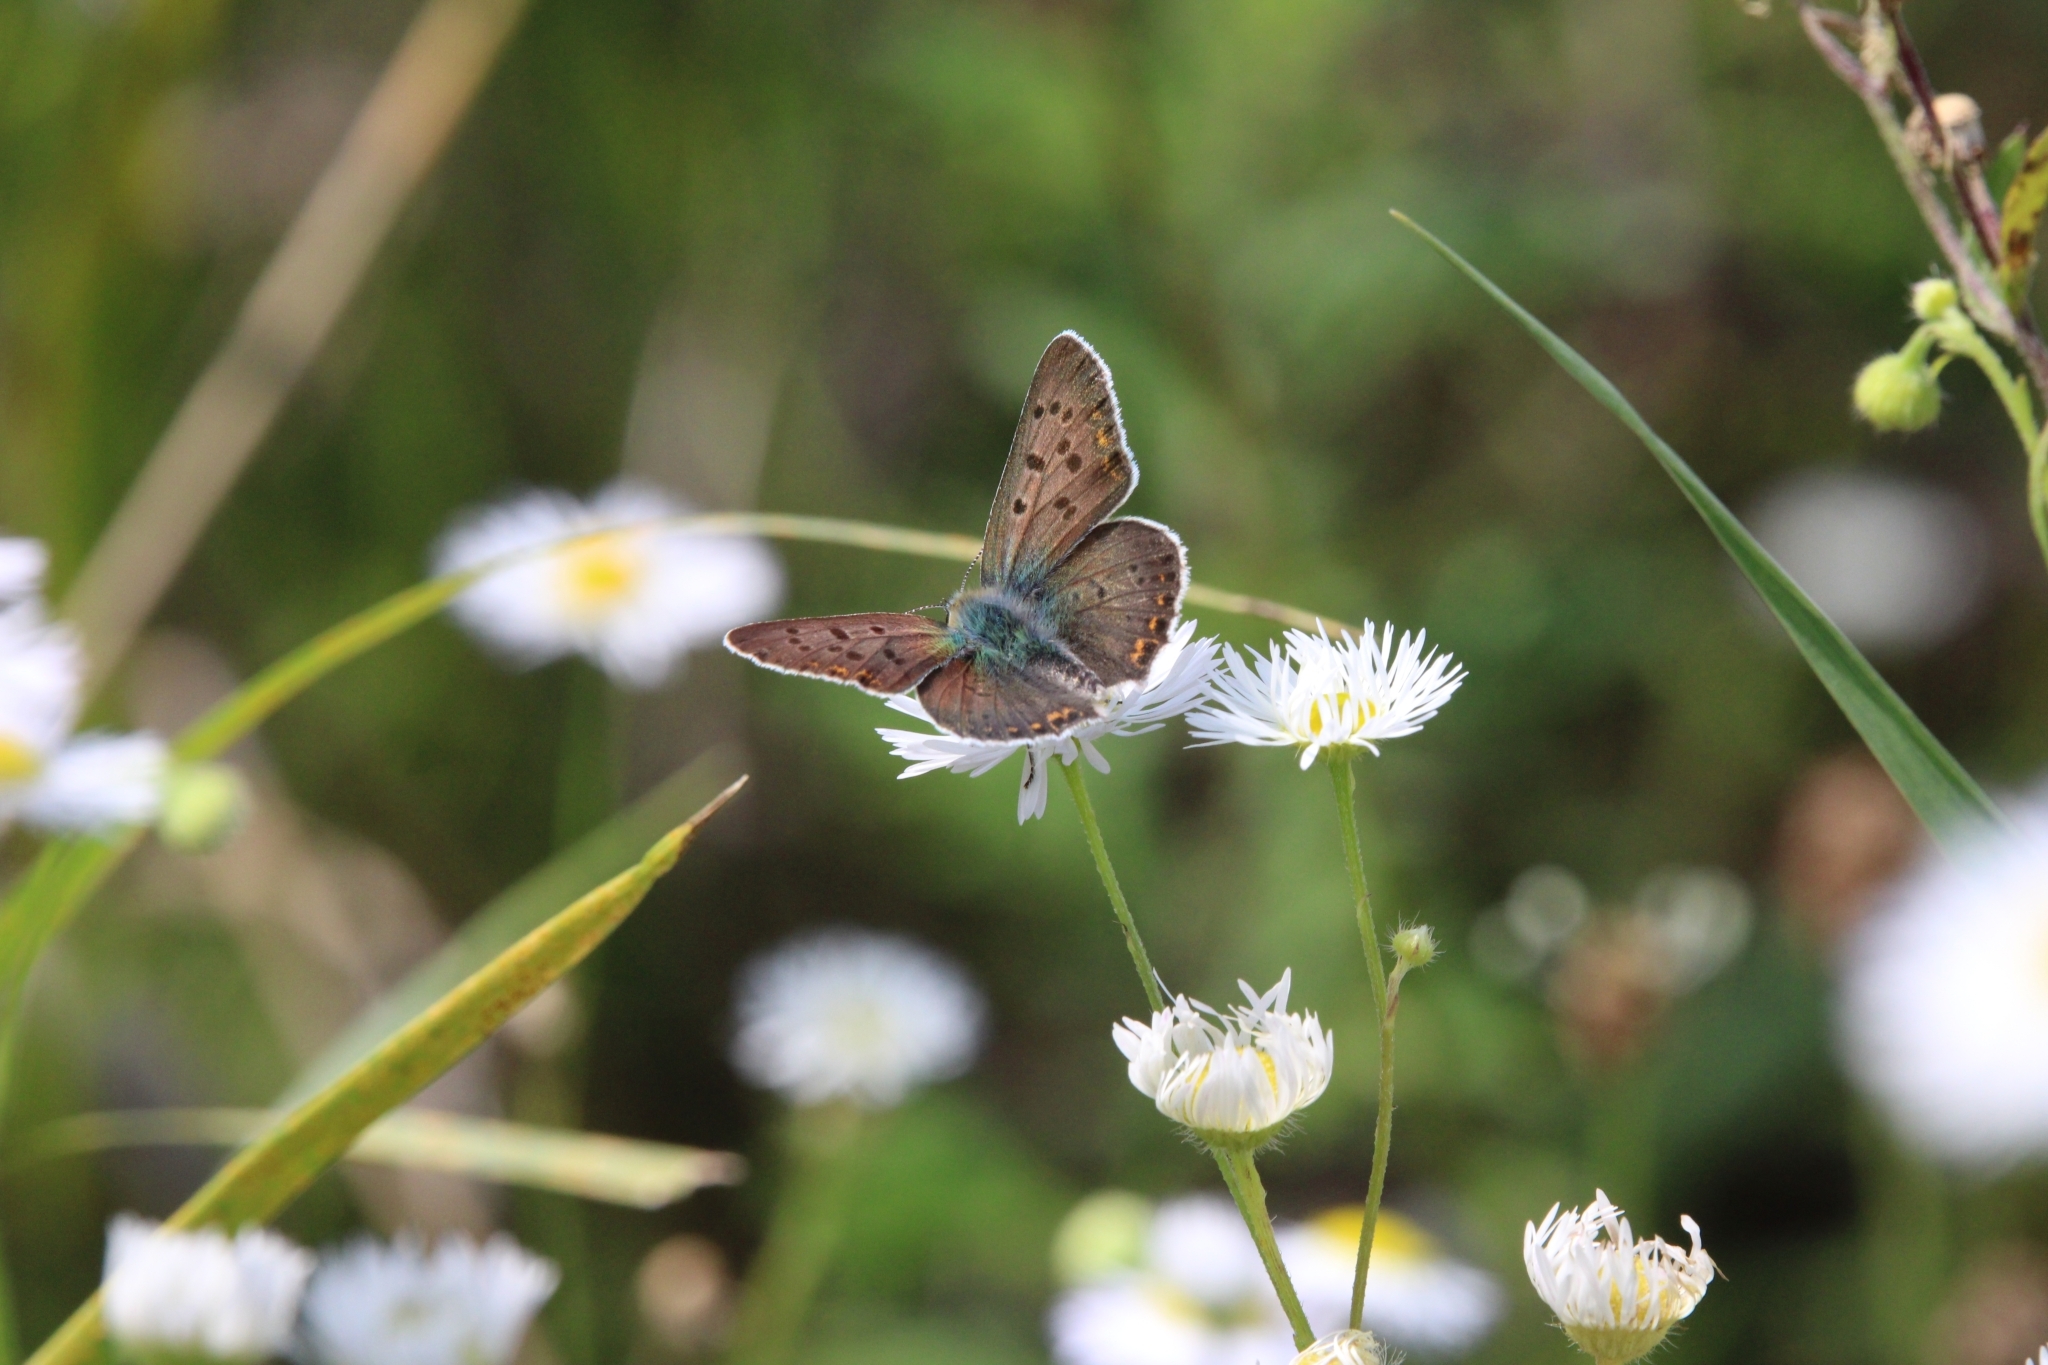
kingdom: Animalia
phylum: Arthropoda
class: Insecta
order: Lepidoptera
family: Lycaenidae
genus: Loweia
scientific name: Loweia tityrus
